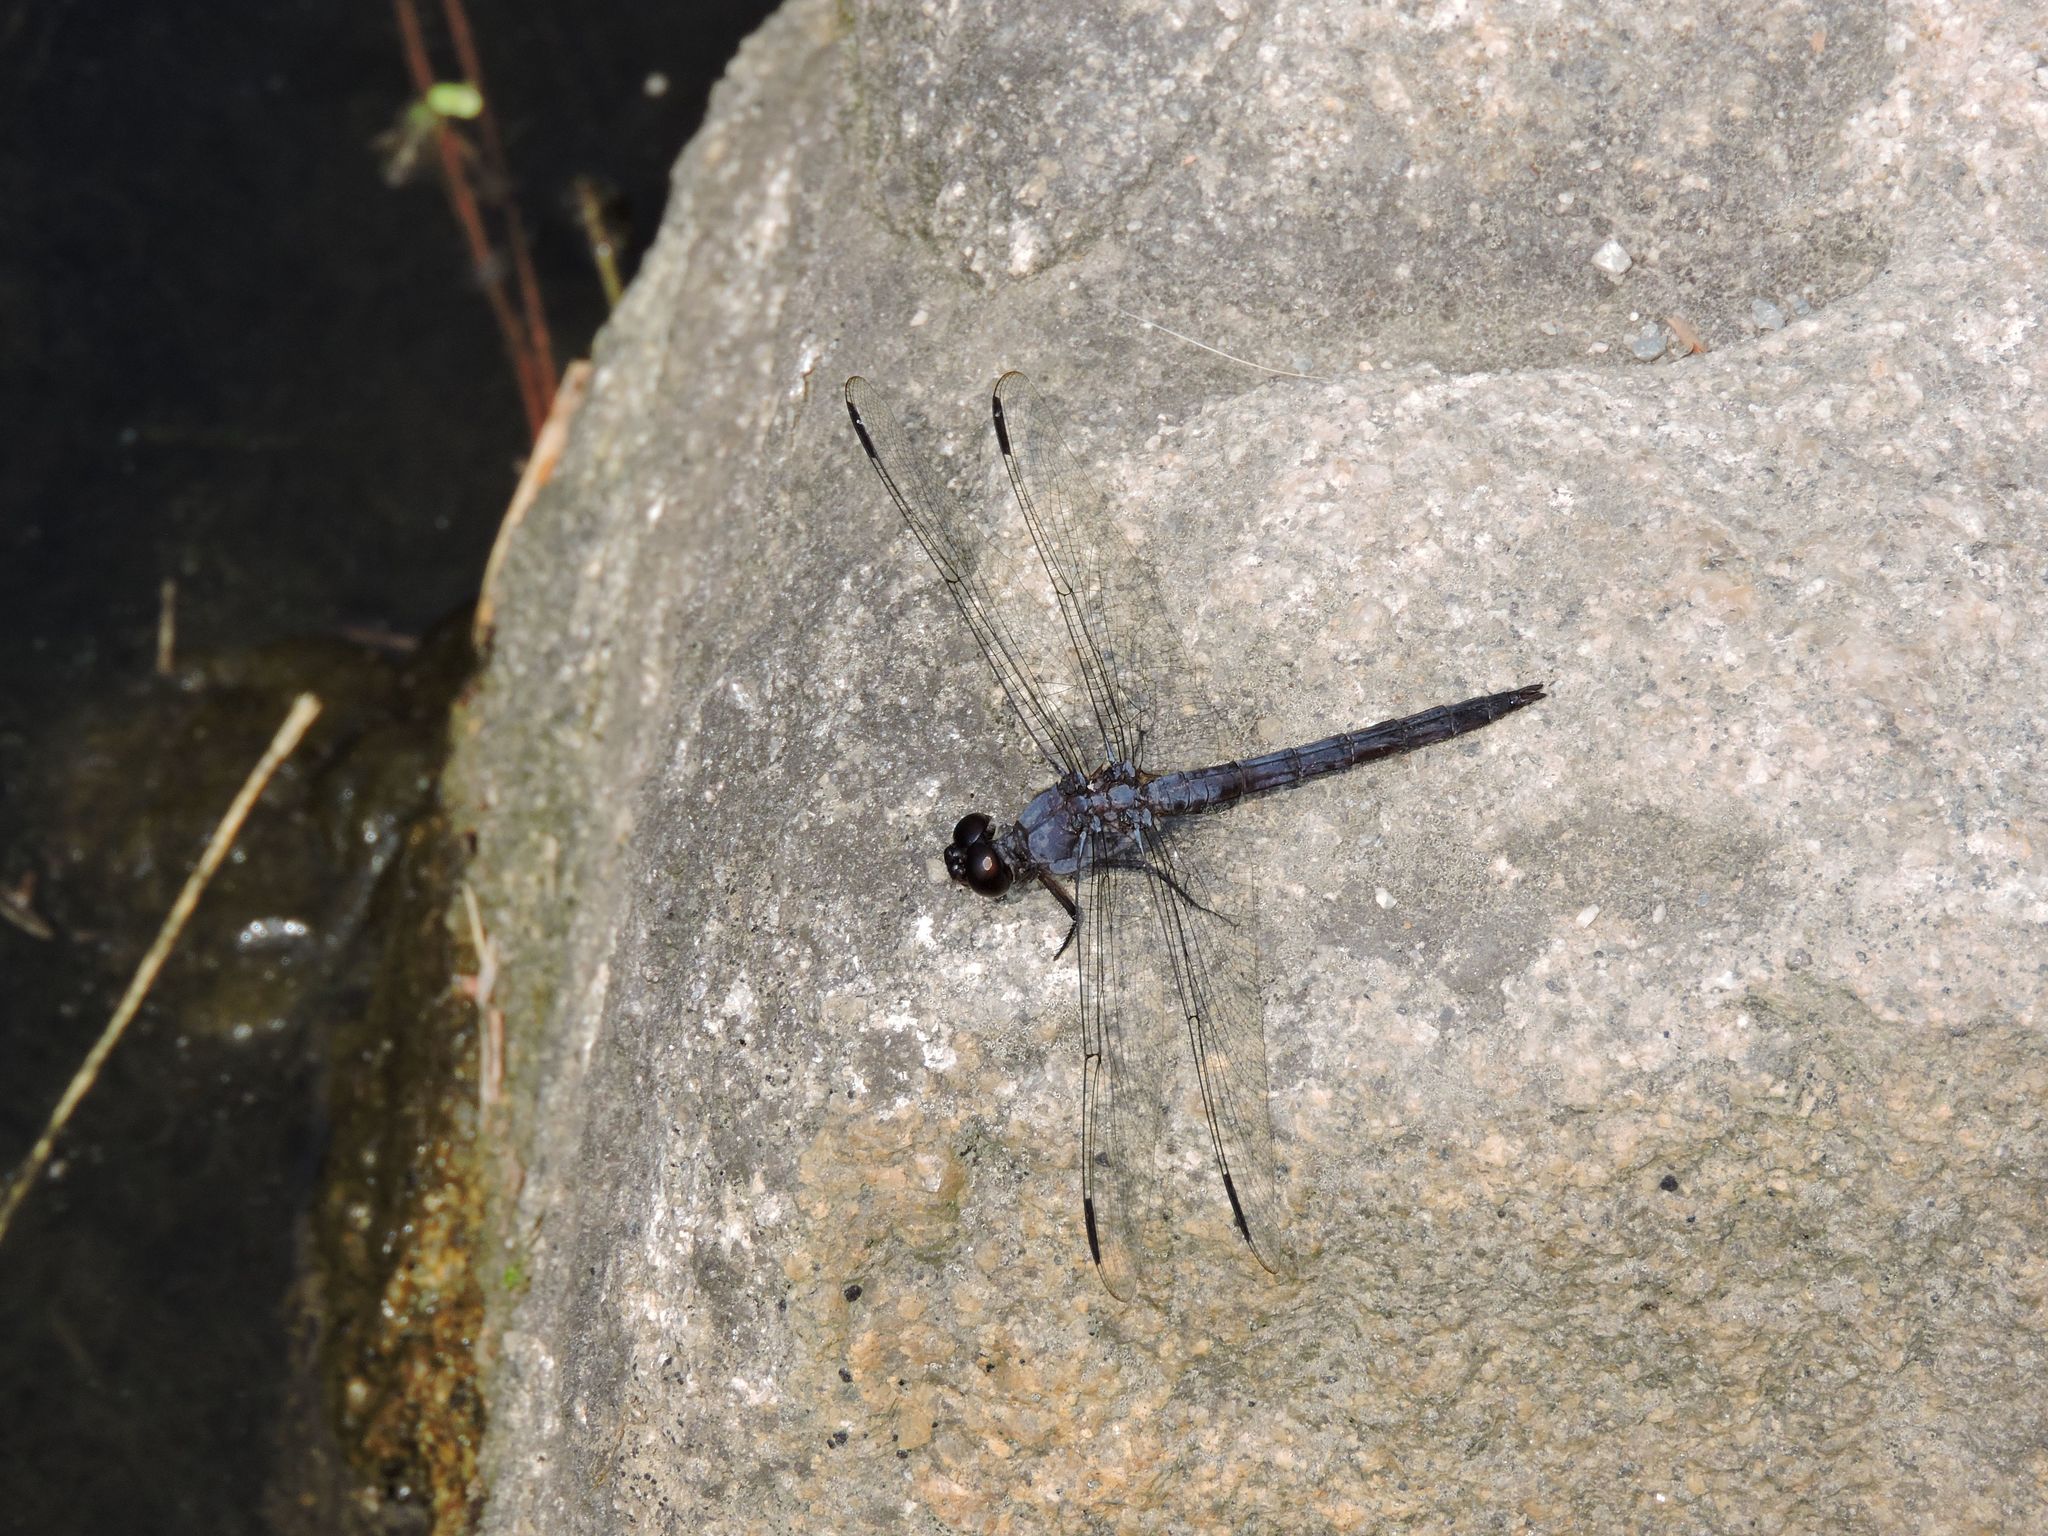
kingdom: Animalia
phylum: Arthropoda
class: Insecta
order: Odonata
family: Libellulidae
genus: Libellula
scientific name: Libellula incesta
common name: Slaty skimmer
